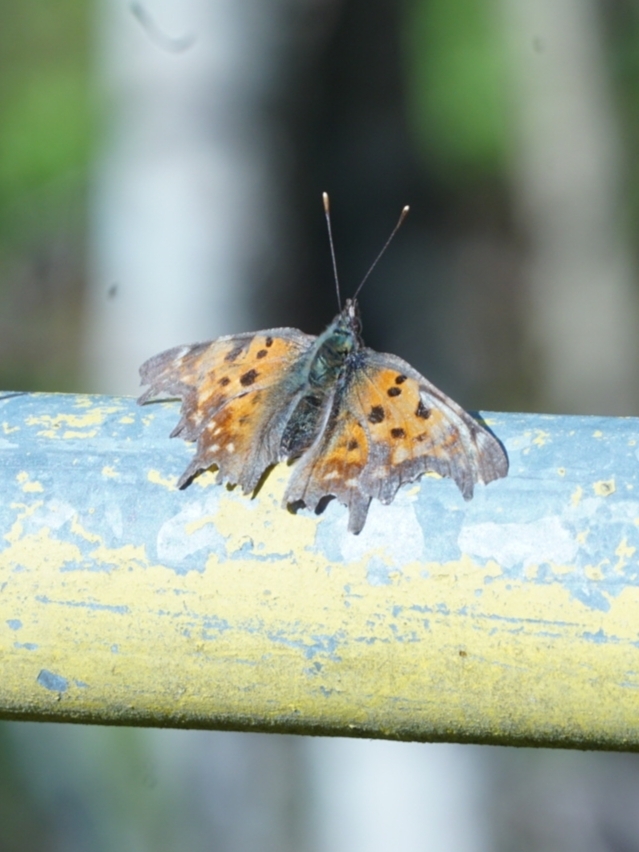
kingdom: Animalia
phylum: Arthropoda
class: Insecta
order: Lepidoptera
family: Nymphalidae
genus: Polygonia
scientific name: Polygonia c-album
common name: Comma
